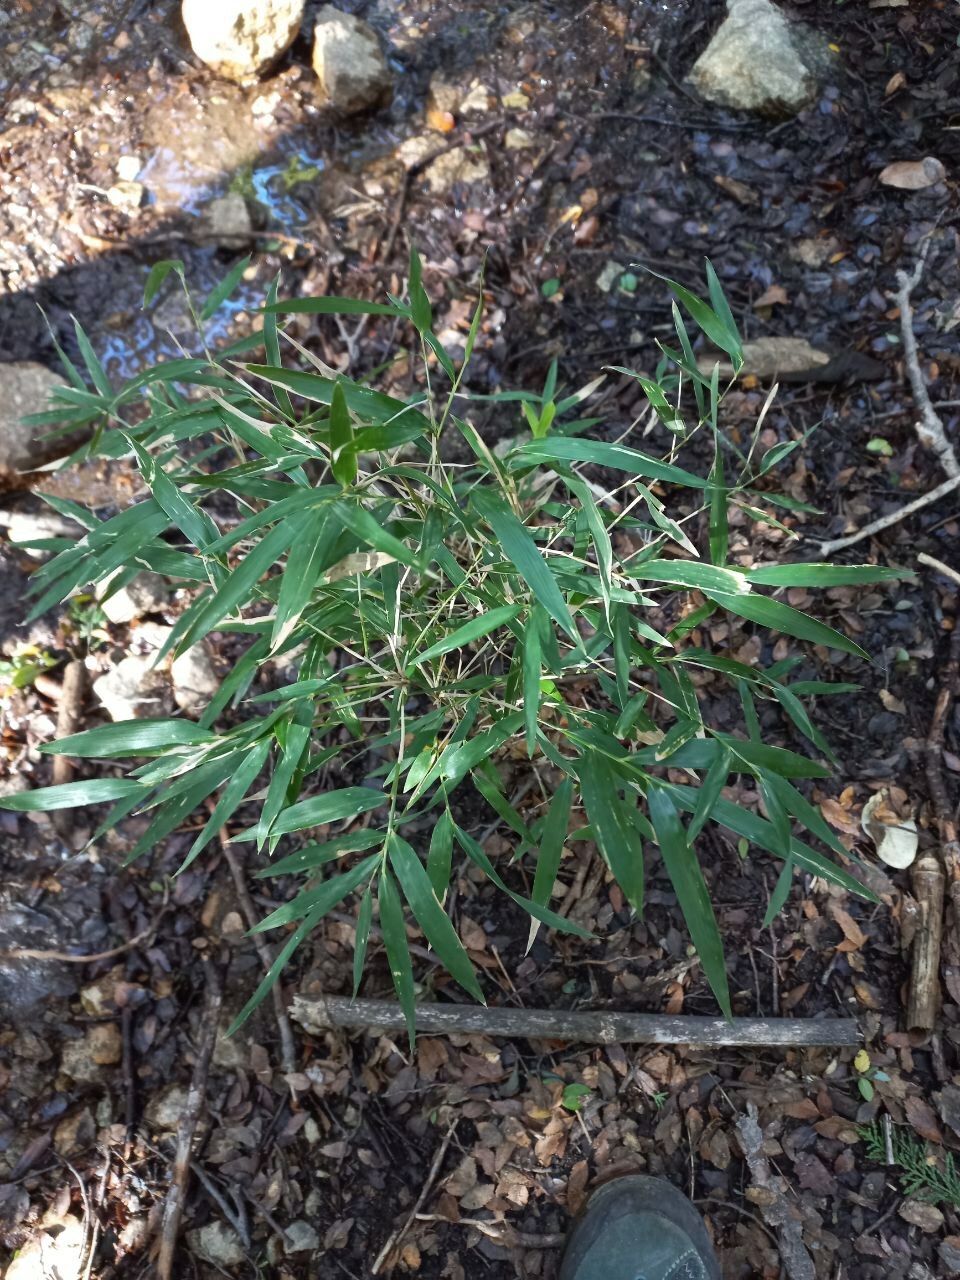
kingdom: Plantae
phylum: Tracheophyta
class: Liliopsida
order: Poales
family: Poaceae
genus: Chusquea
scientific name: Chusquea culeou
